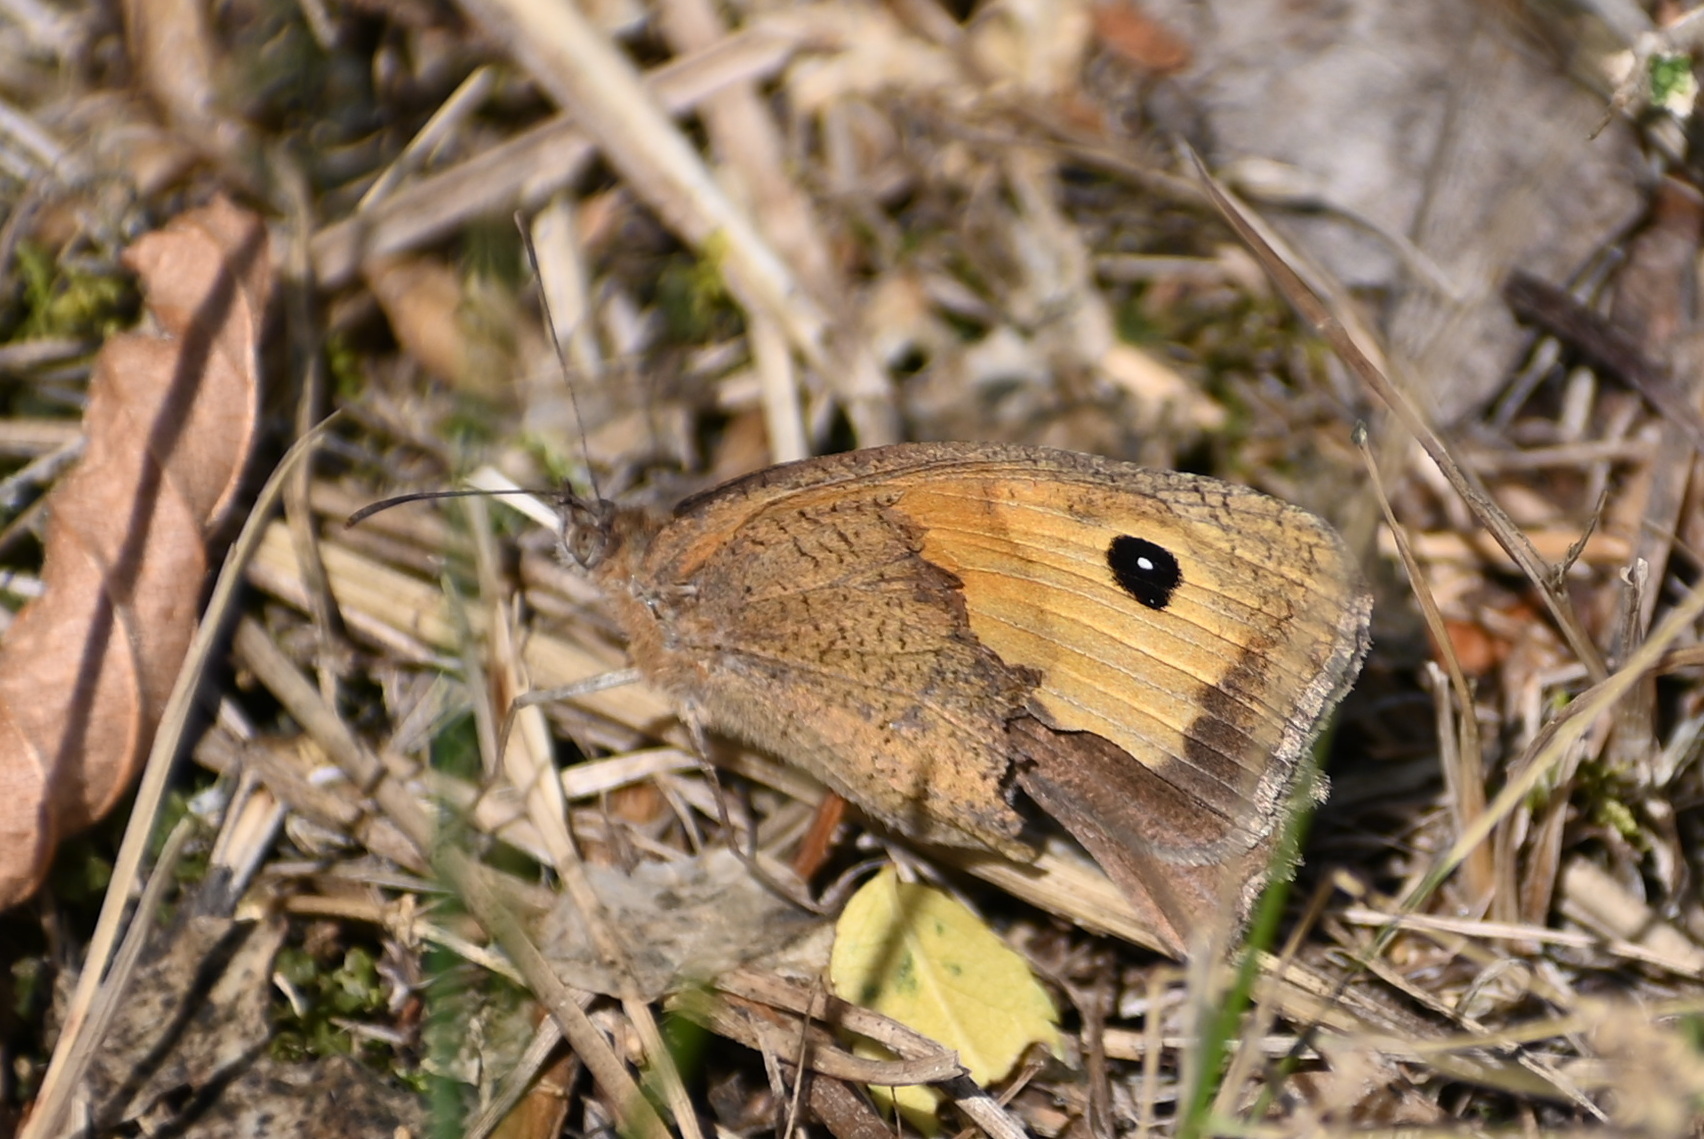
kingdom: Animalia
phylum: Arthropoda
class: Insecta
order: Lepidoptera
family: Nymphalidae
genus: Maniola
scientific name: Maniola jurtina
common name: Meadow brown
